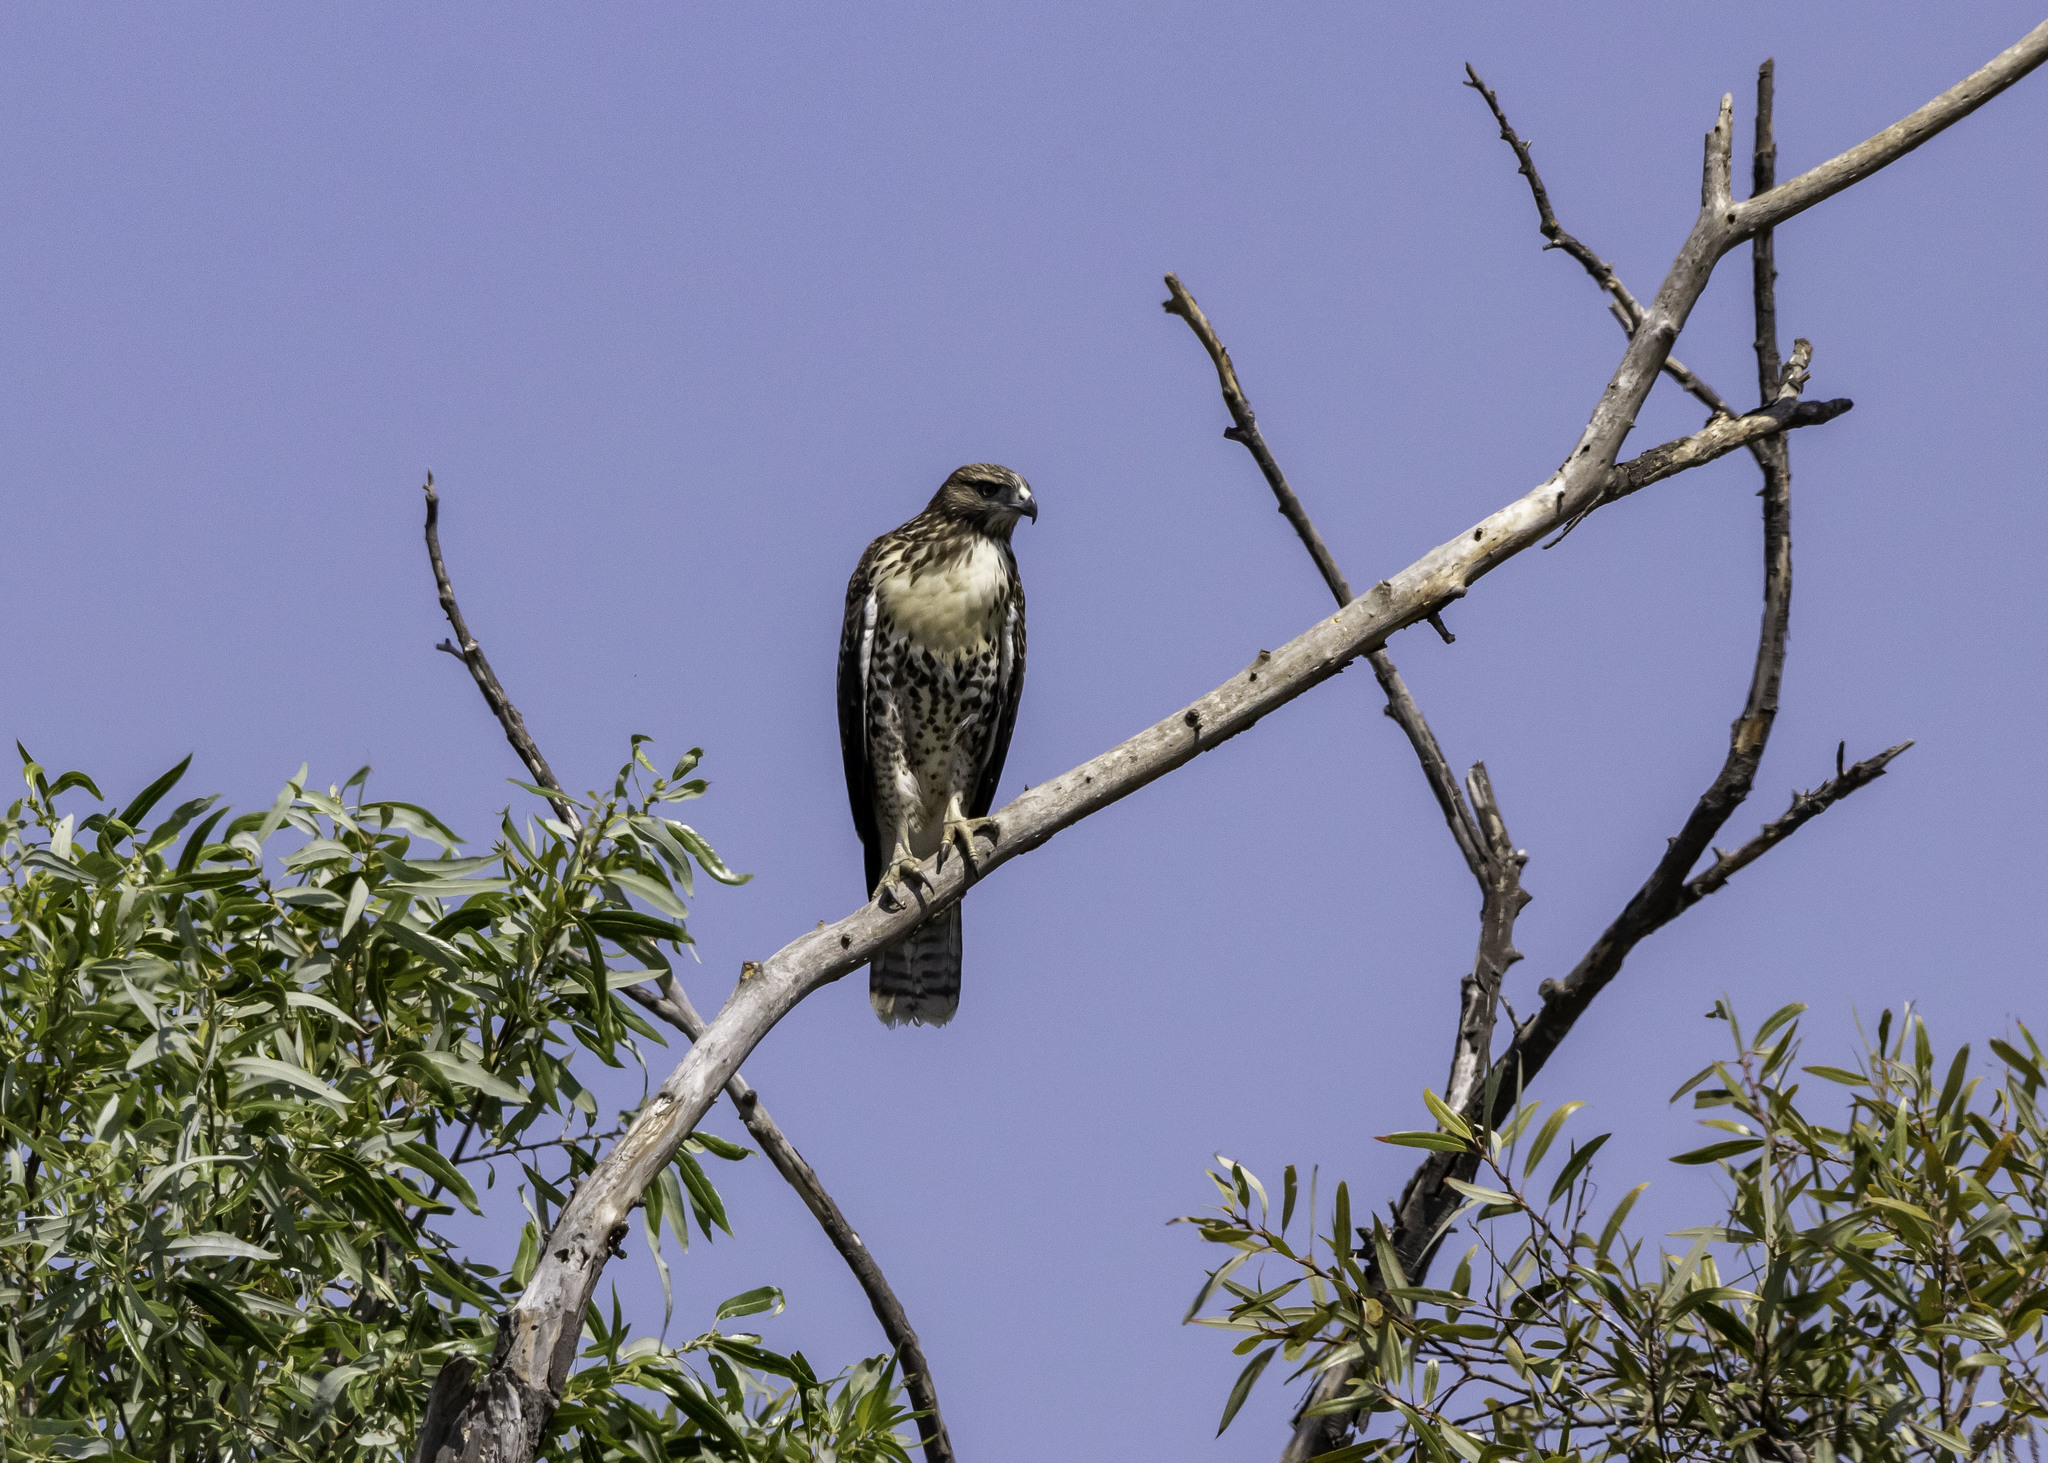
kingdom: Animalia
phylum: Chordata
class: Aves
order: Accipitriformes
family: Accipitridae
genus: Buteo
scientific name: Buteo jamaicensis
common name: Red-tailed hawk
